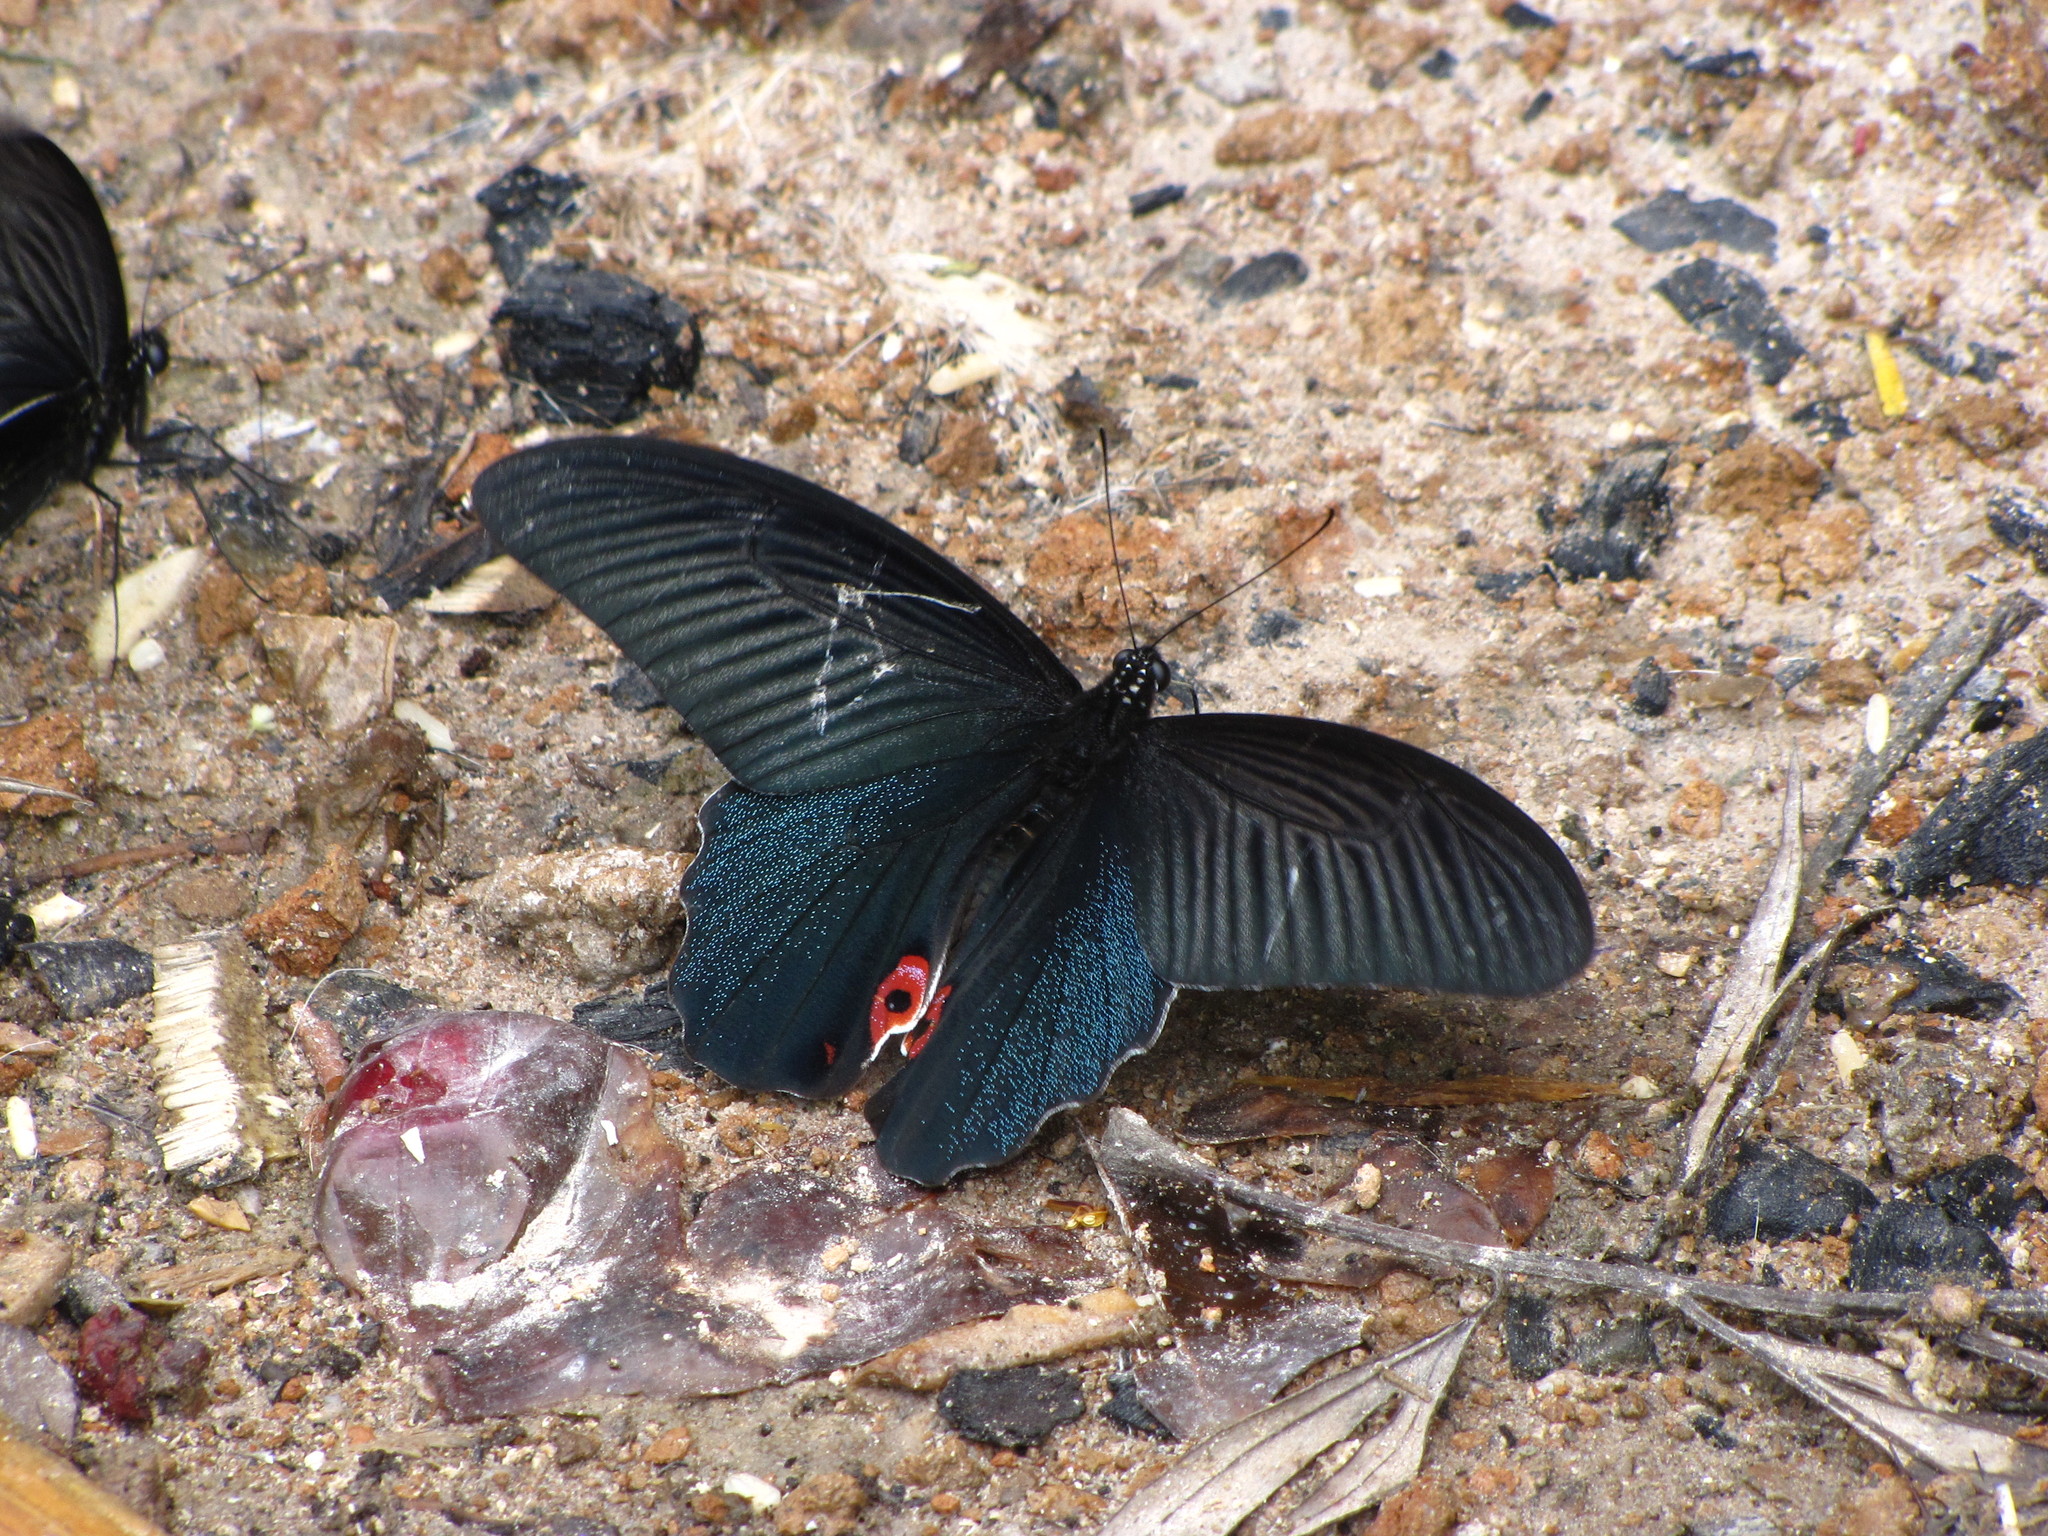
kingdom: Animalia
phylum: Arthropoda
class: Insecta
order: Lepidoptera
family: Papilionidae
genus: Papilio
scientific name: Papilio protenor
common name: Spangle
